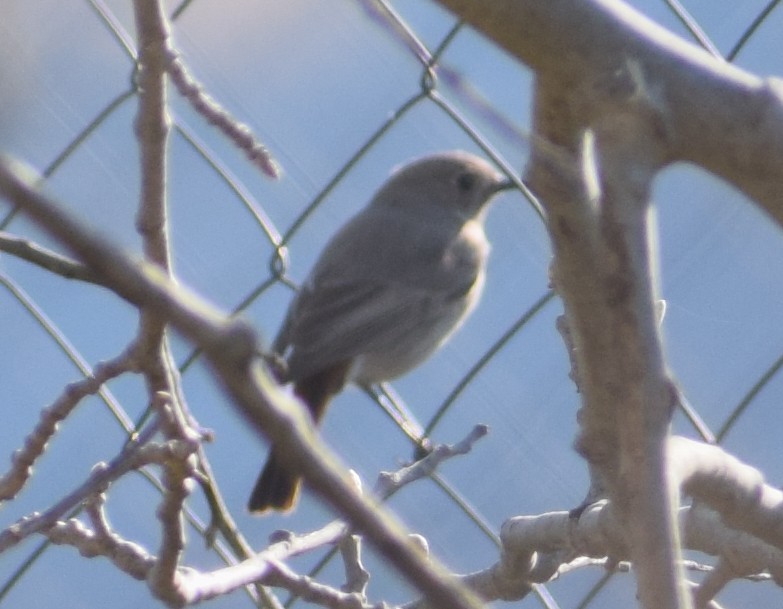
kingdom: Animalia
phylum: Chordata
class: Aves
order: Passeriformes
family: Muscicapidae
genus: Phoenicurus
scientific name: Phoenicurus ochruros
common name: Black redstart
